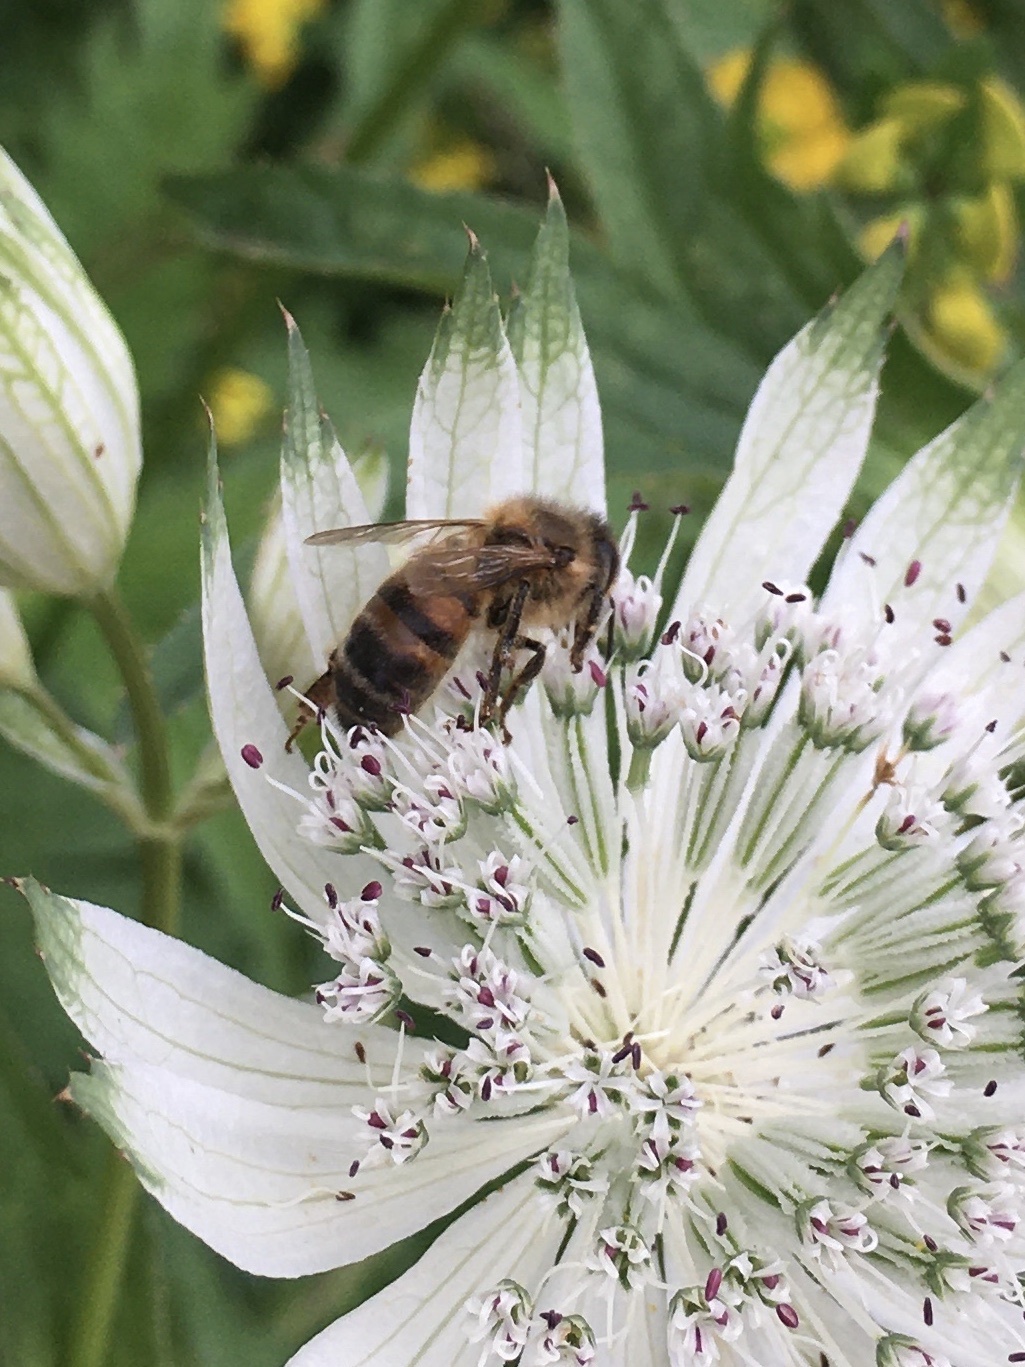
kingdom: Animalia
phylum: Arthropoda
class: Insecta
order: Hymenoptera
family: Apidae
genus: Apis
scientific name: Apis mellifera
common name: Honey bee
